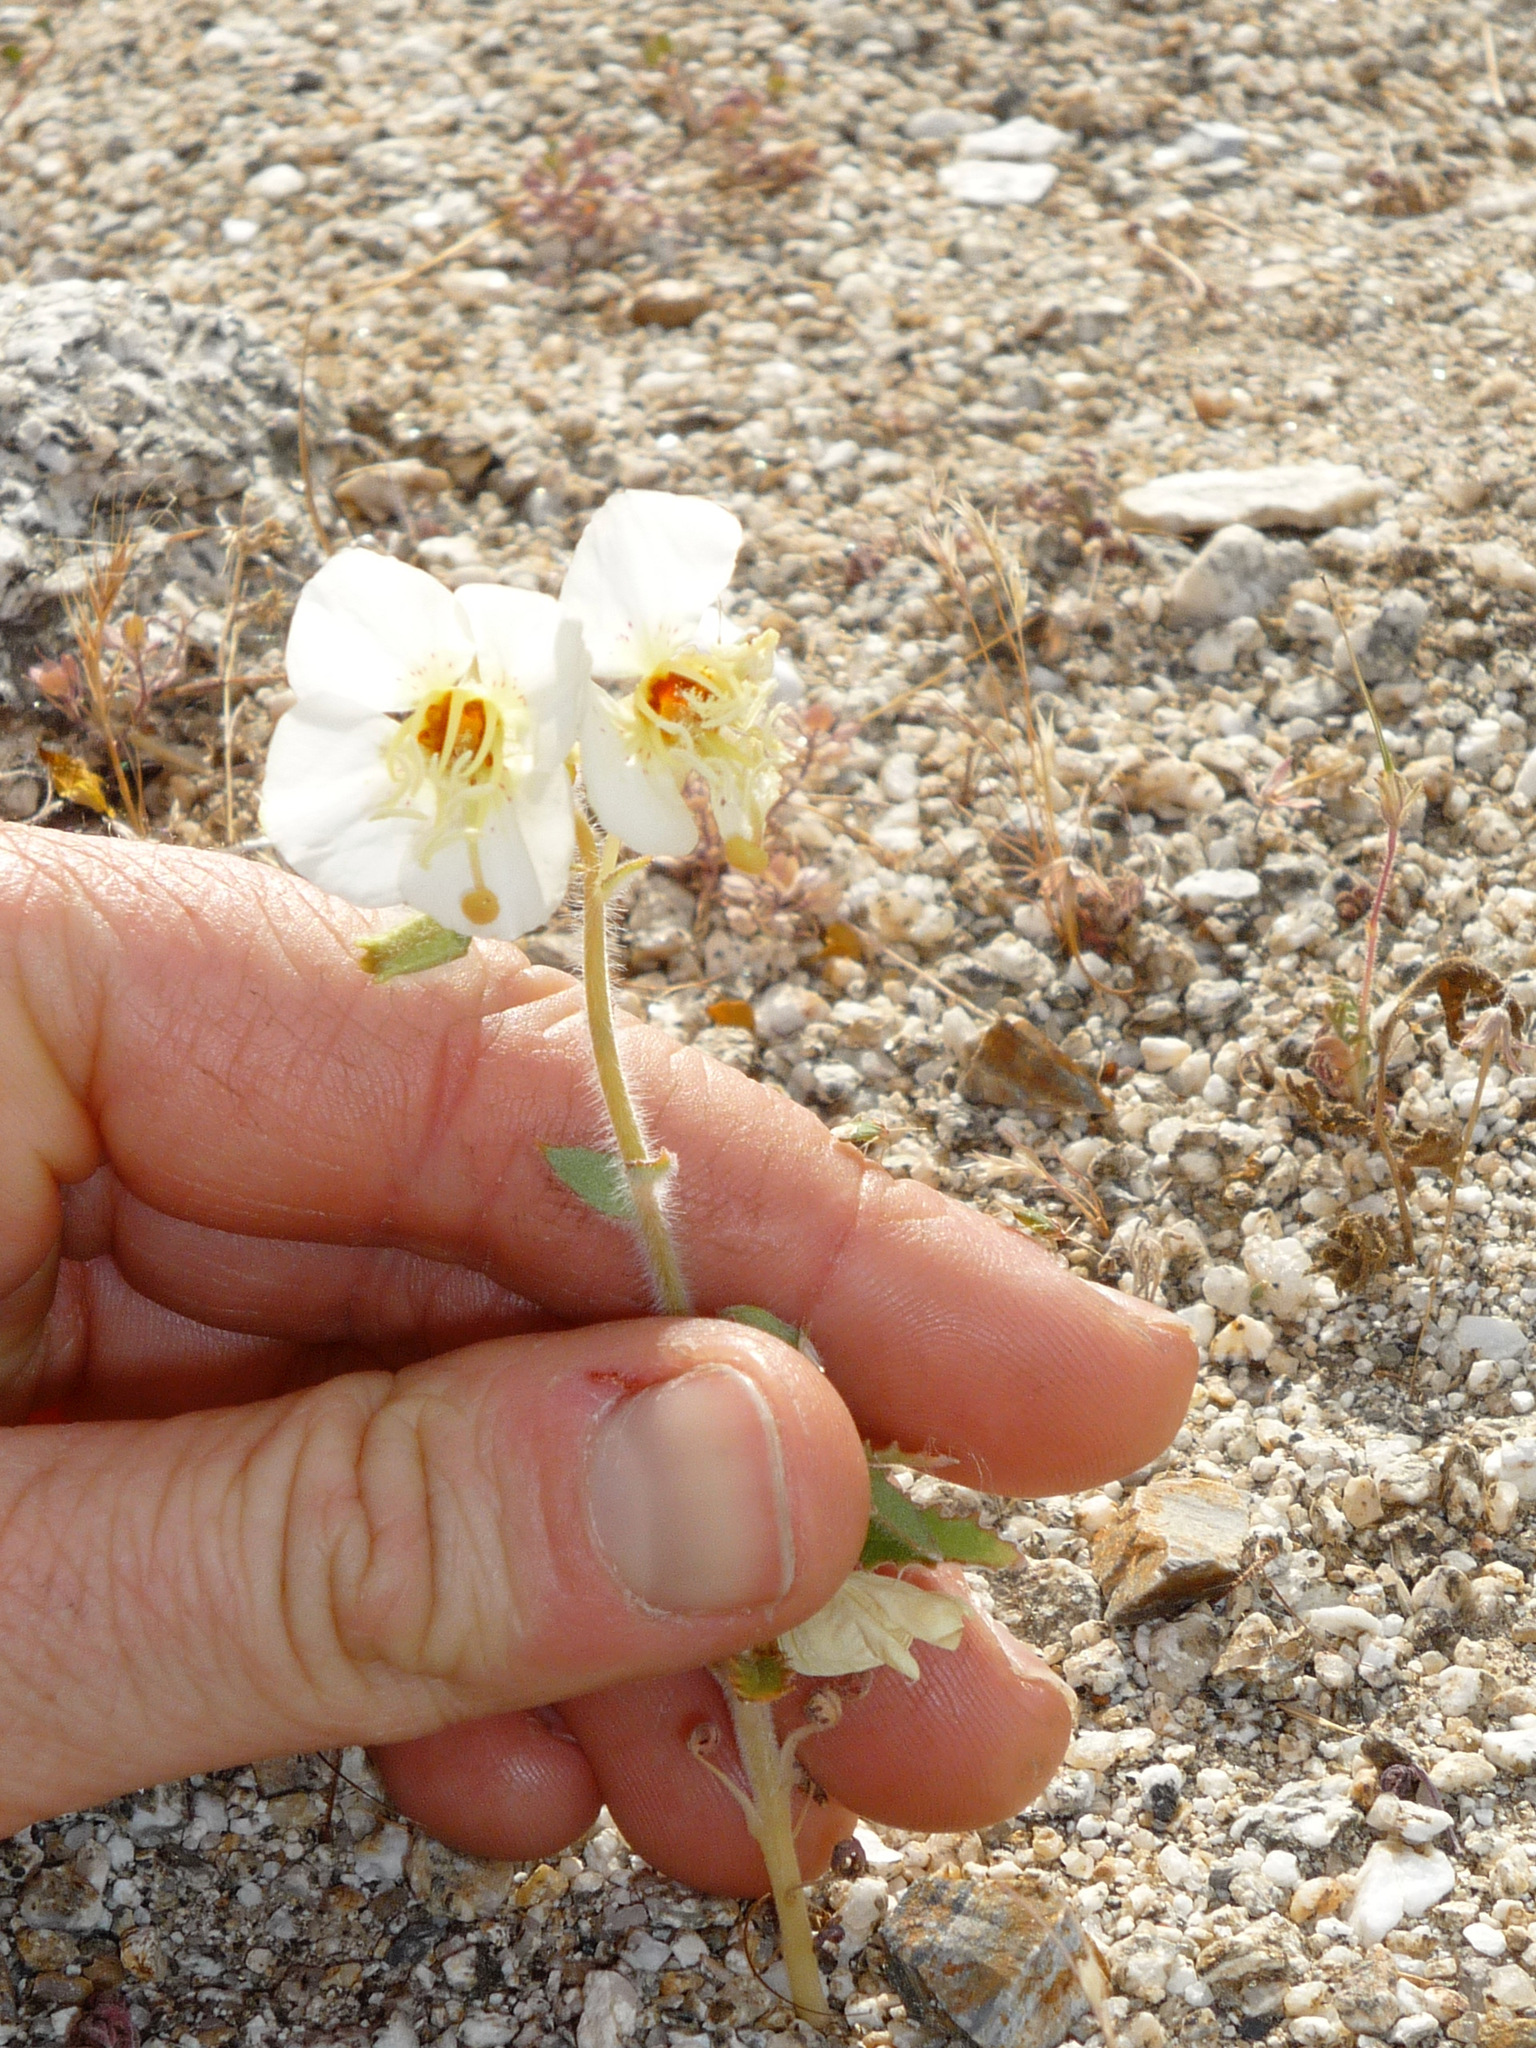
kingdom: Plantae
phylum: Tracheophyta
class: Magnoliopsida
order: Myrtales
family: Onagraceae
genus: Chylismia
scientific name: Chylismia claviformis
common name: Browneyes
